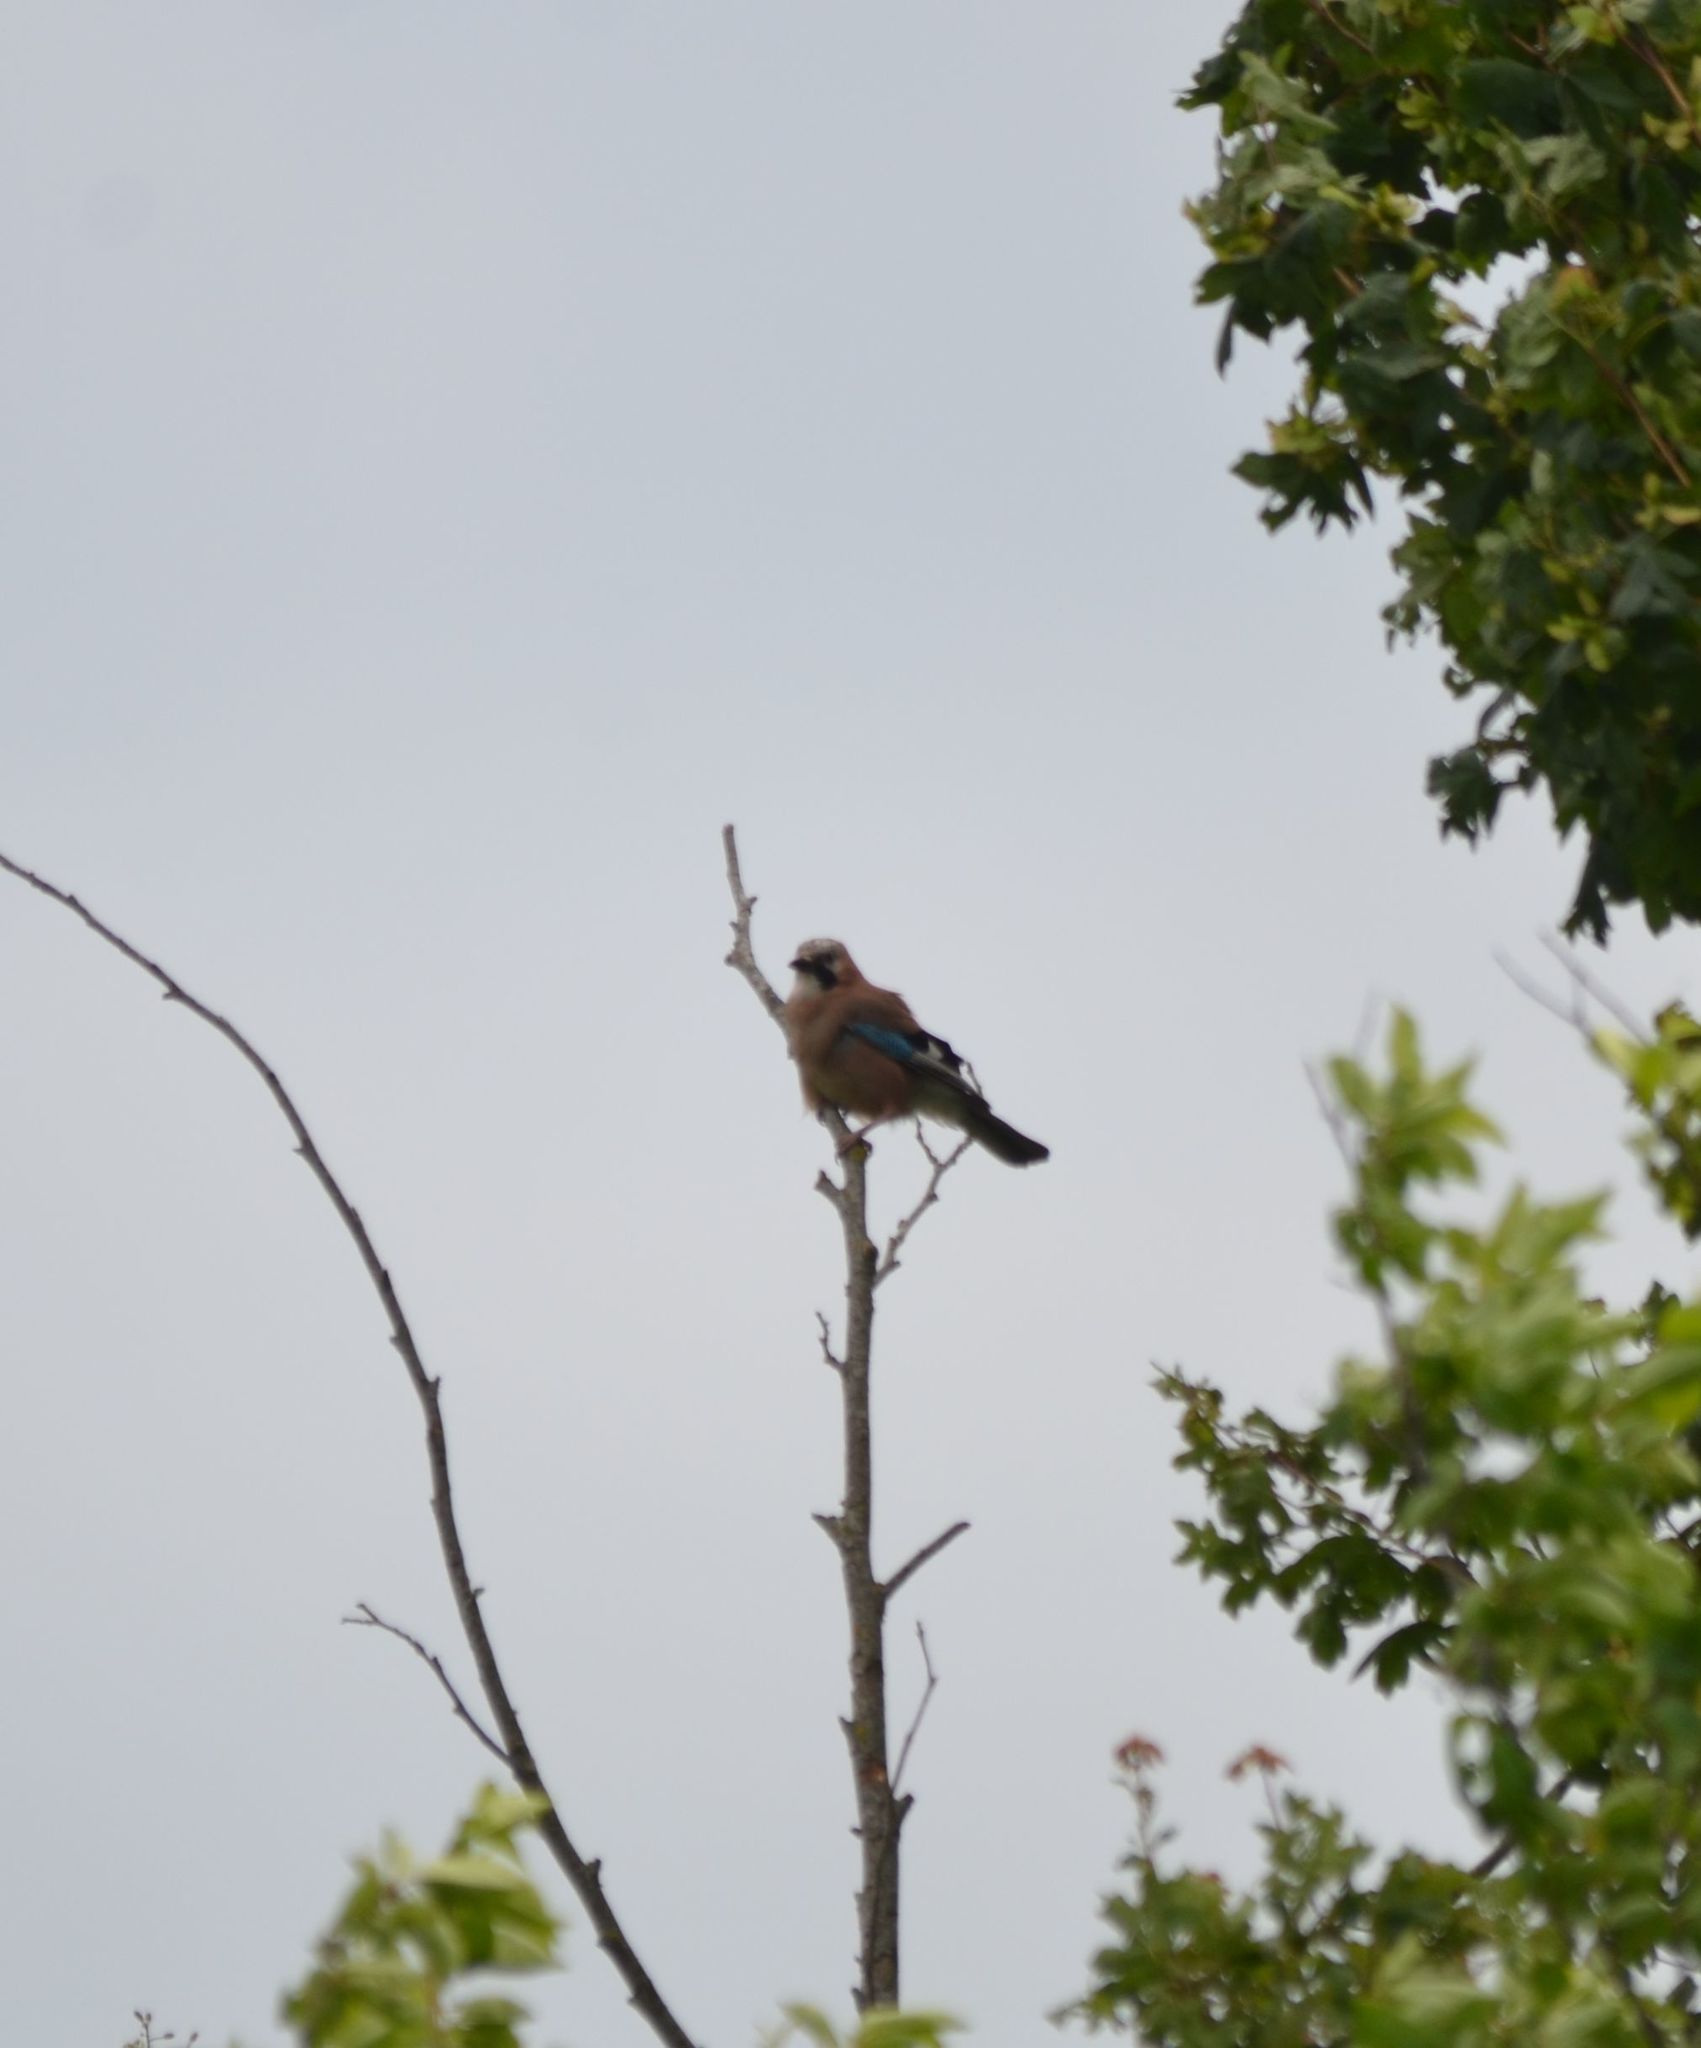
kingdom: Animalia
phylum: Chordata
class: Aves
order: Passeriformes
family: Corvidae
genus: Garrulus
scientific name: Garrulus glandarius
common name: Eurasian jay
